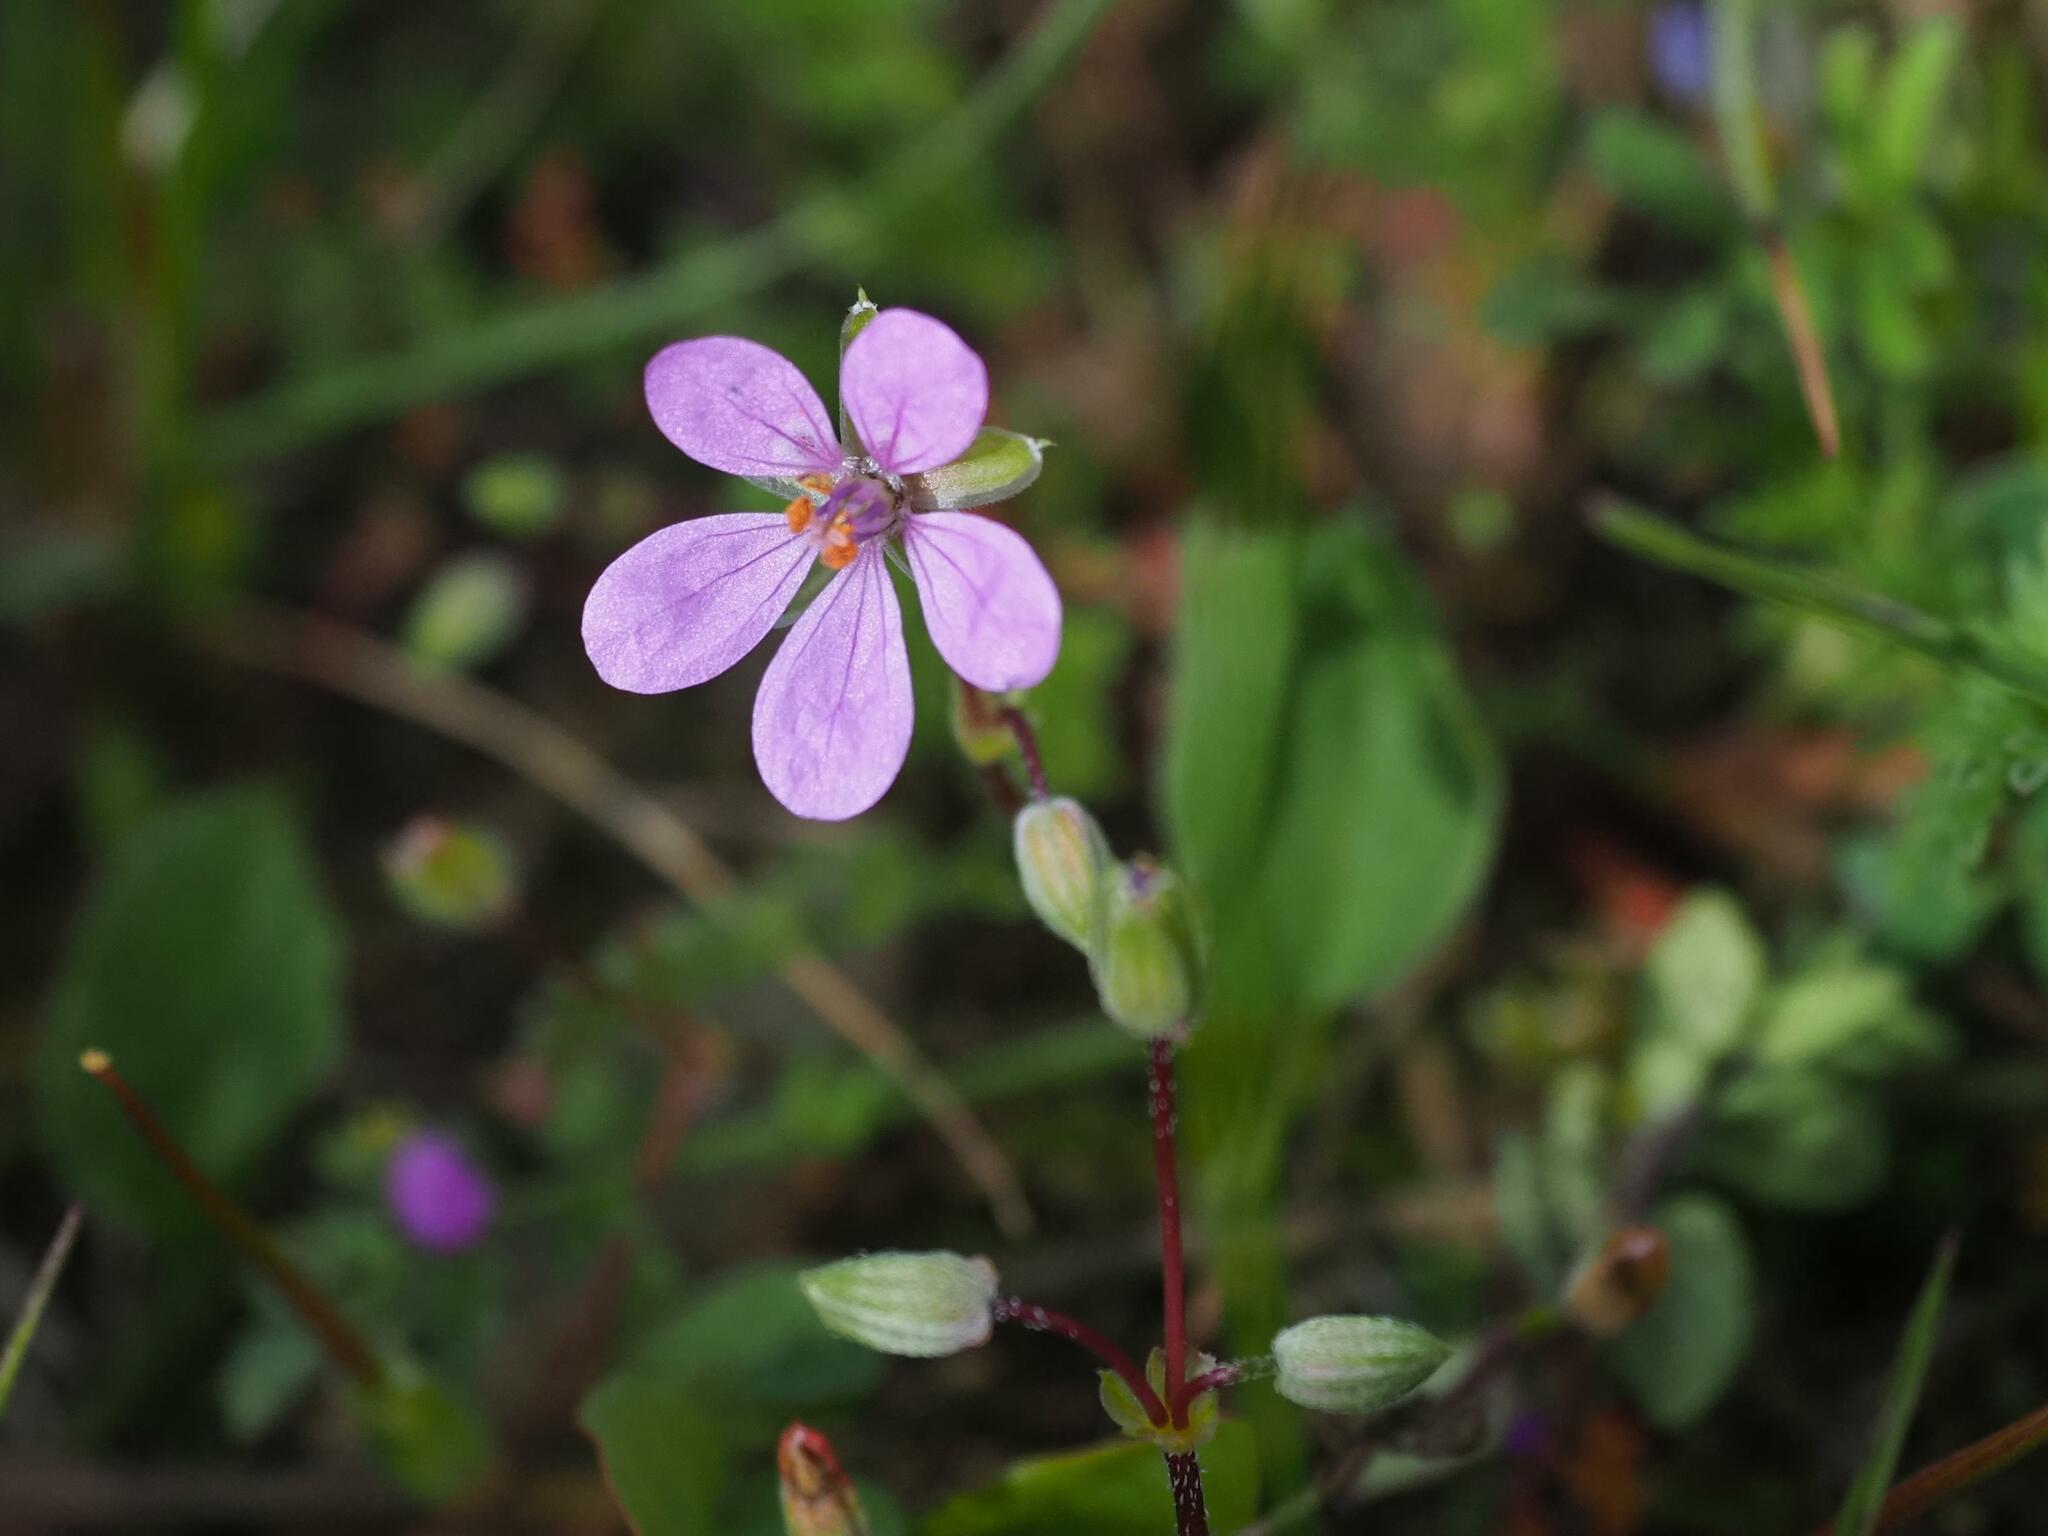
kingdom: Plantae
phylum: Tracheophyta
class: Magnoliopsida
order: Geraniales
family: Geraniaceae
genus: Erodium
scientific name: Erodium cicutarium
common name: Common stork's-bill
